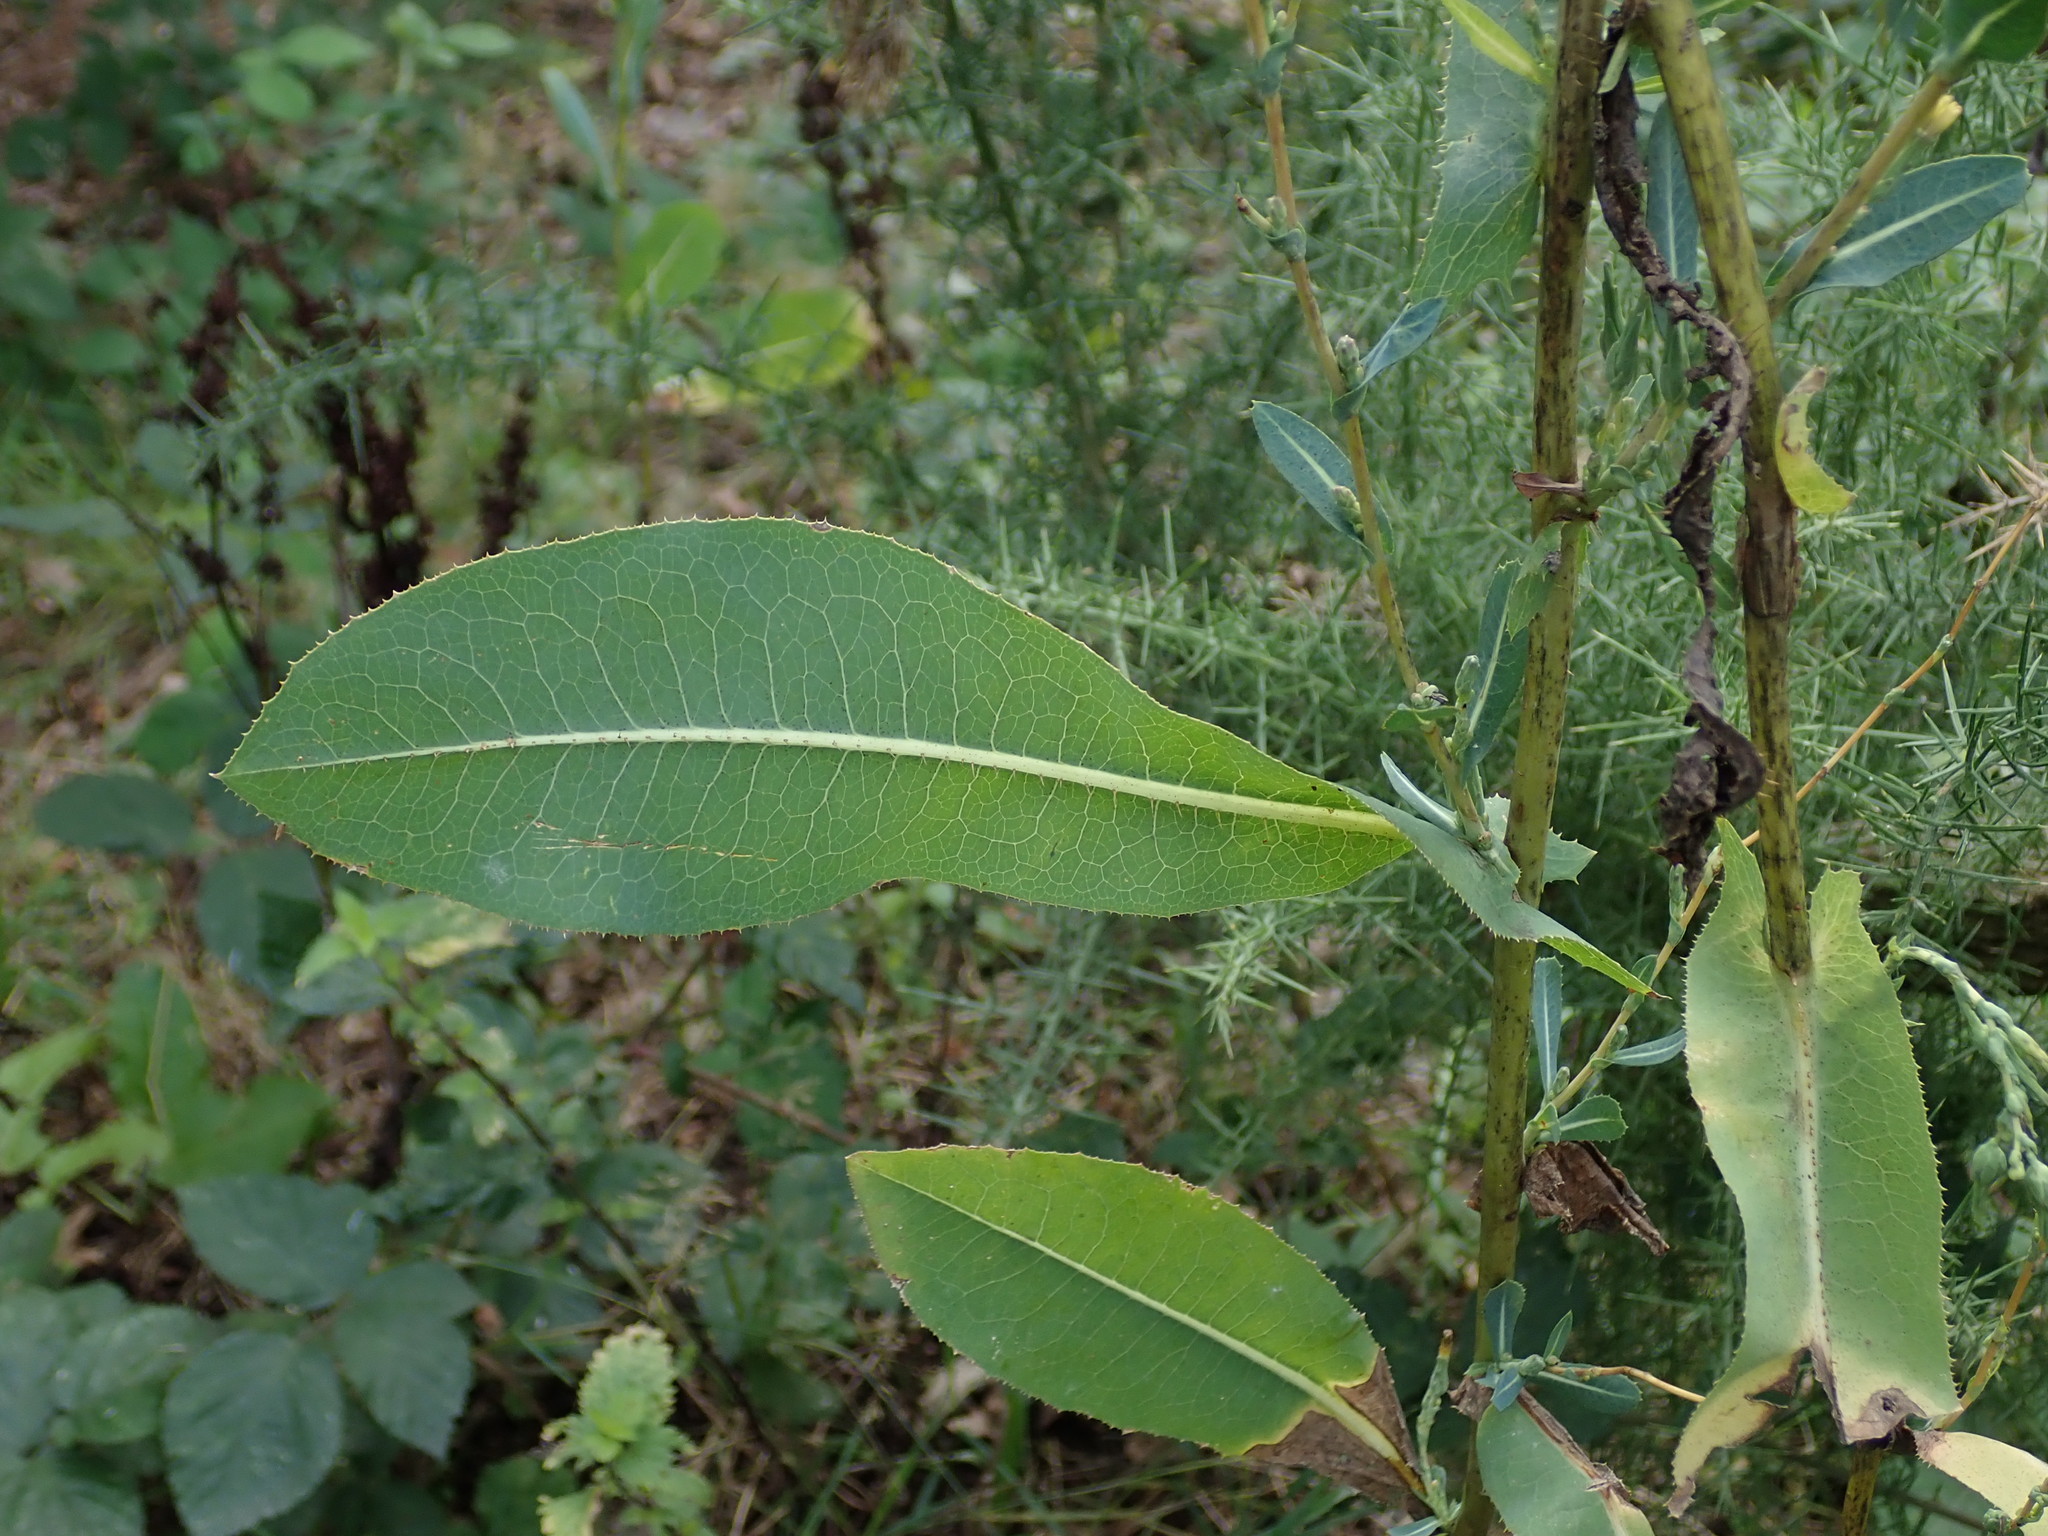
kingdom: Plantae
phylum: Tracheophyta
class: Magnoliopsida
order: Asterales
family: Asteraceae
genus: Lactuca
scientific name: Lactuca serriola
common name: Prickly lettuce
